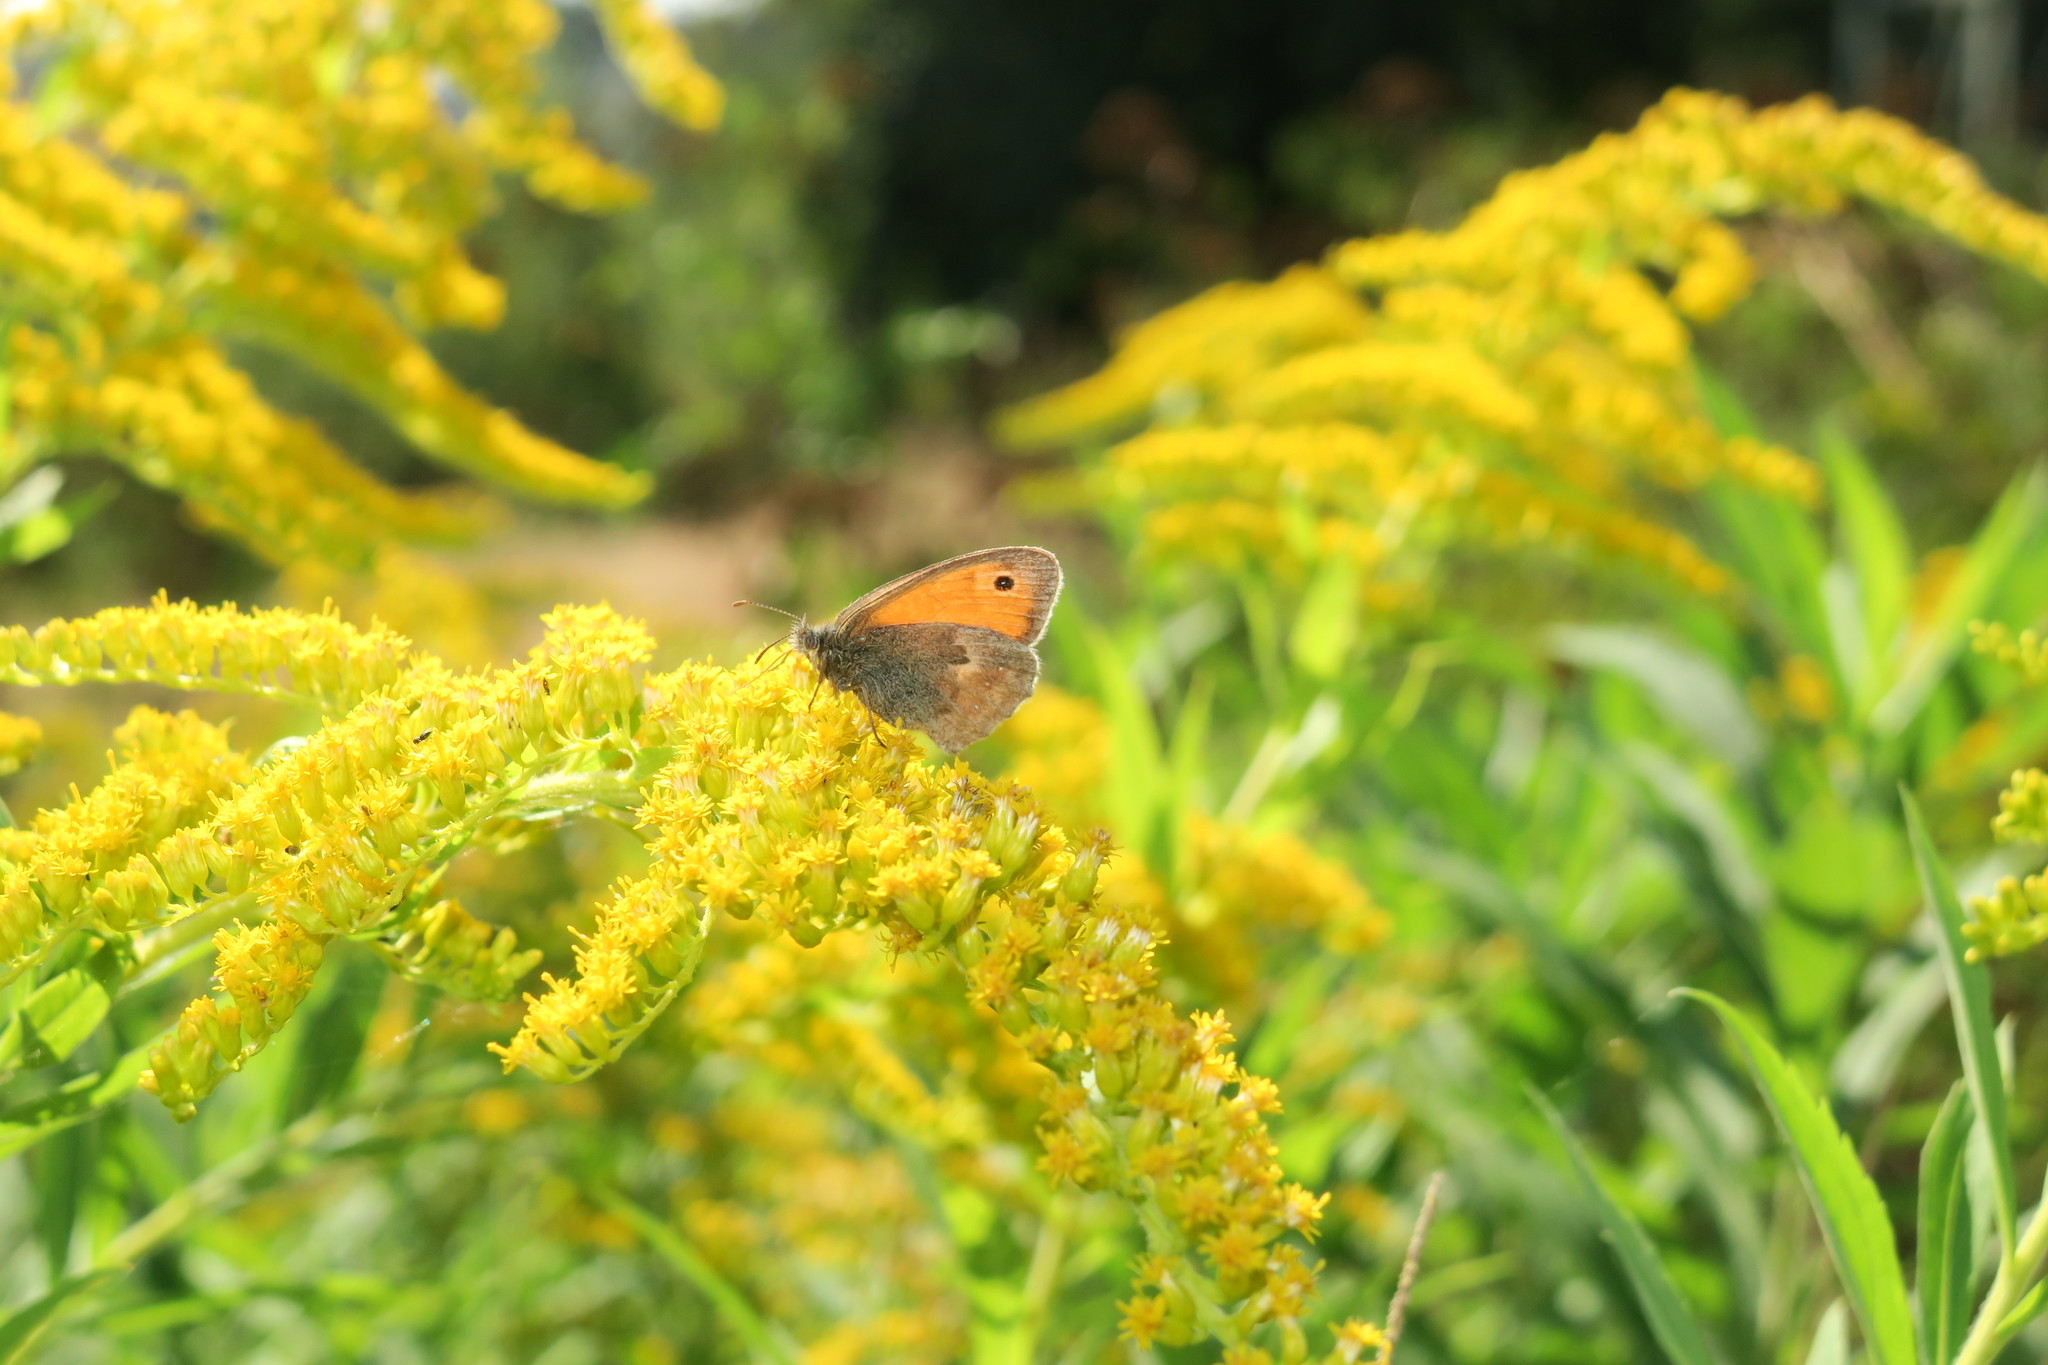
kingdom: Animalia
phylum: Arthropoda
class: Insecta
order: Lepidoptera
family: Nymphalidae
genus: Coenonympha
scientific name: Coenonympha pamphilus
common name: Small heath
